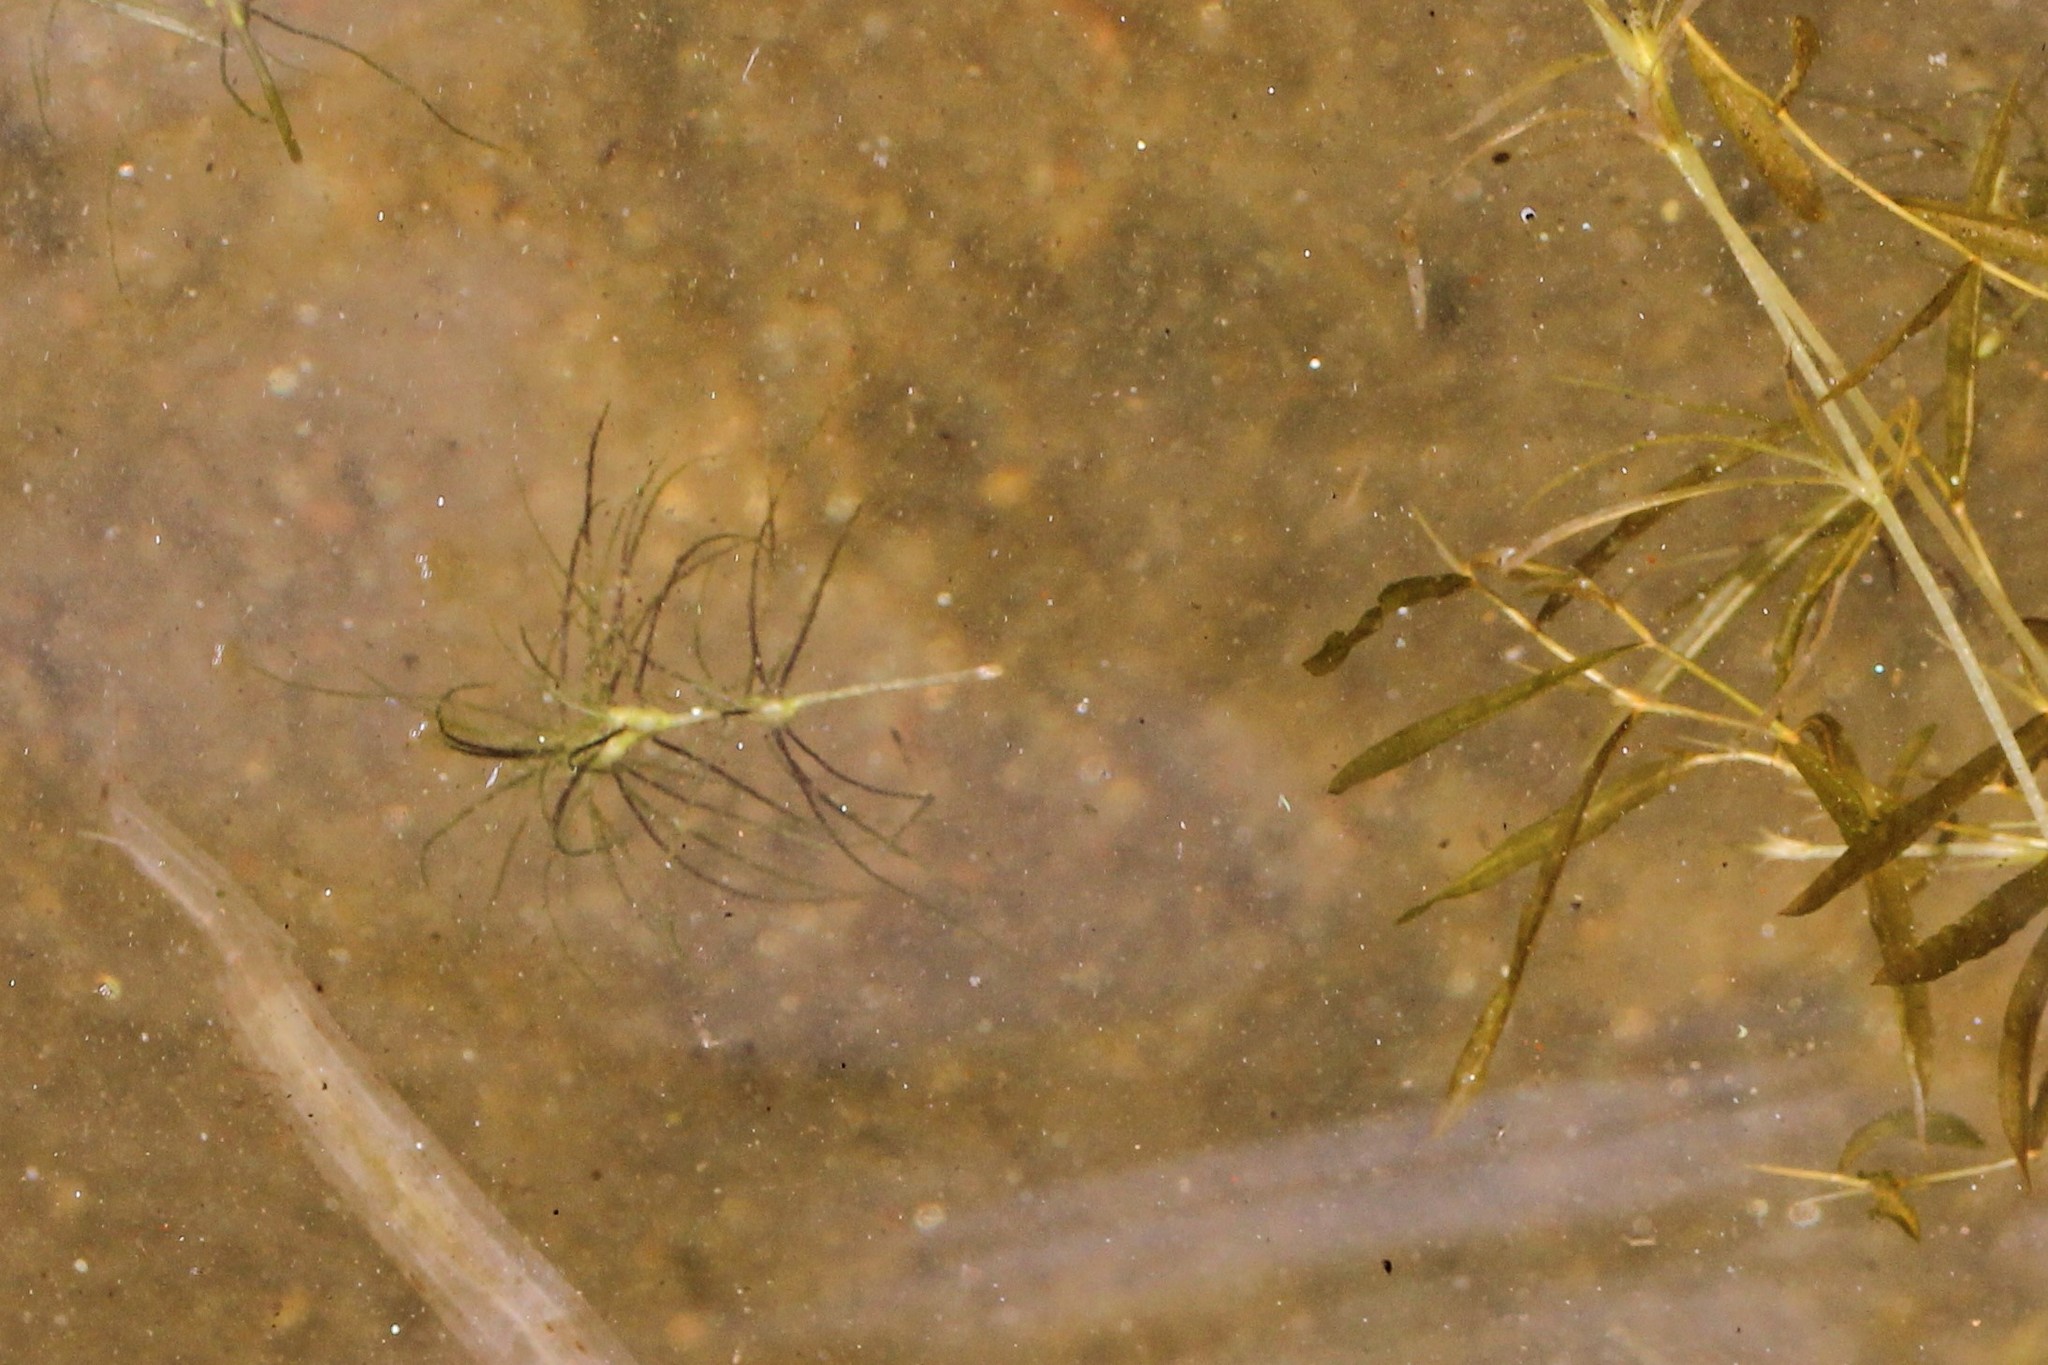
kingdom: Plantae
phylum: Tracheophyta
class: Liliopsida
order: Alismatales
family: Hydrocharitaceae
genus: Najas
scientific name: Najas gracillima
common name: Slender water-nymph
